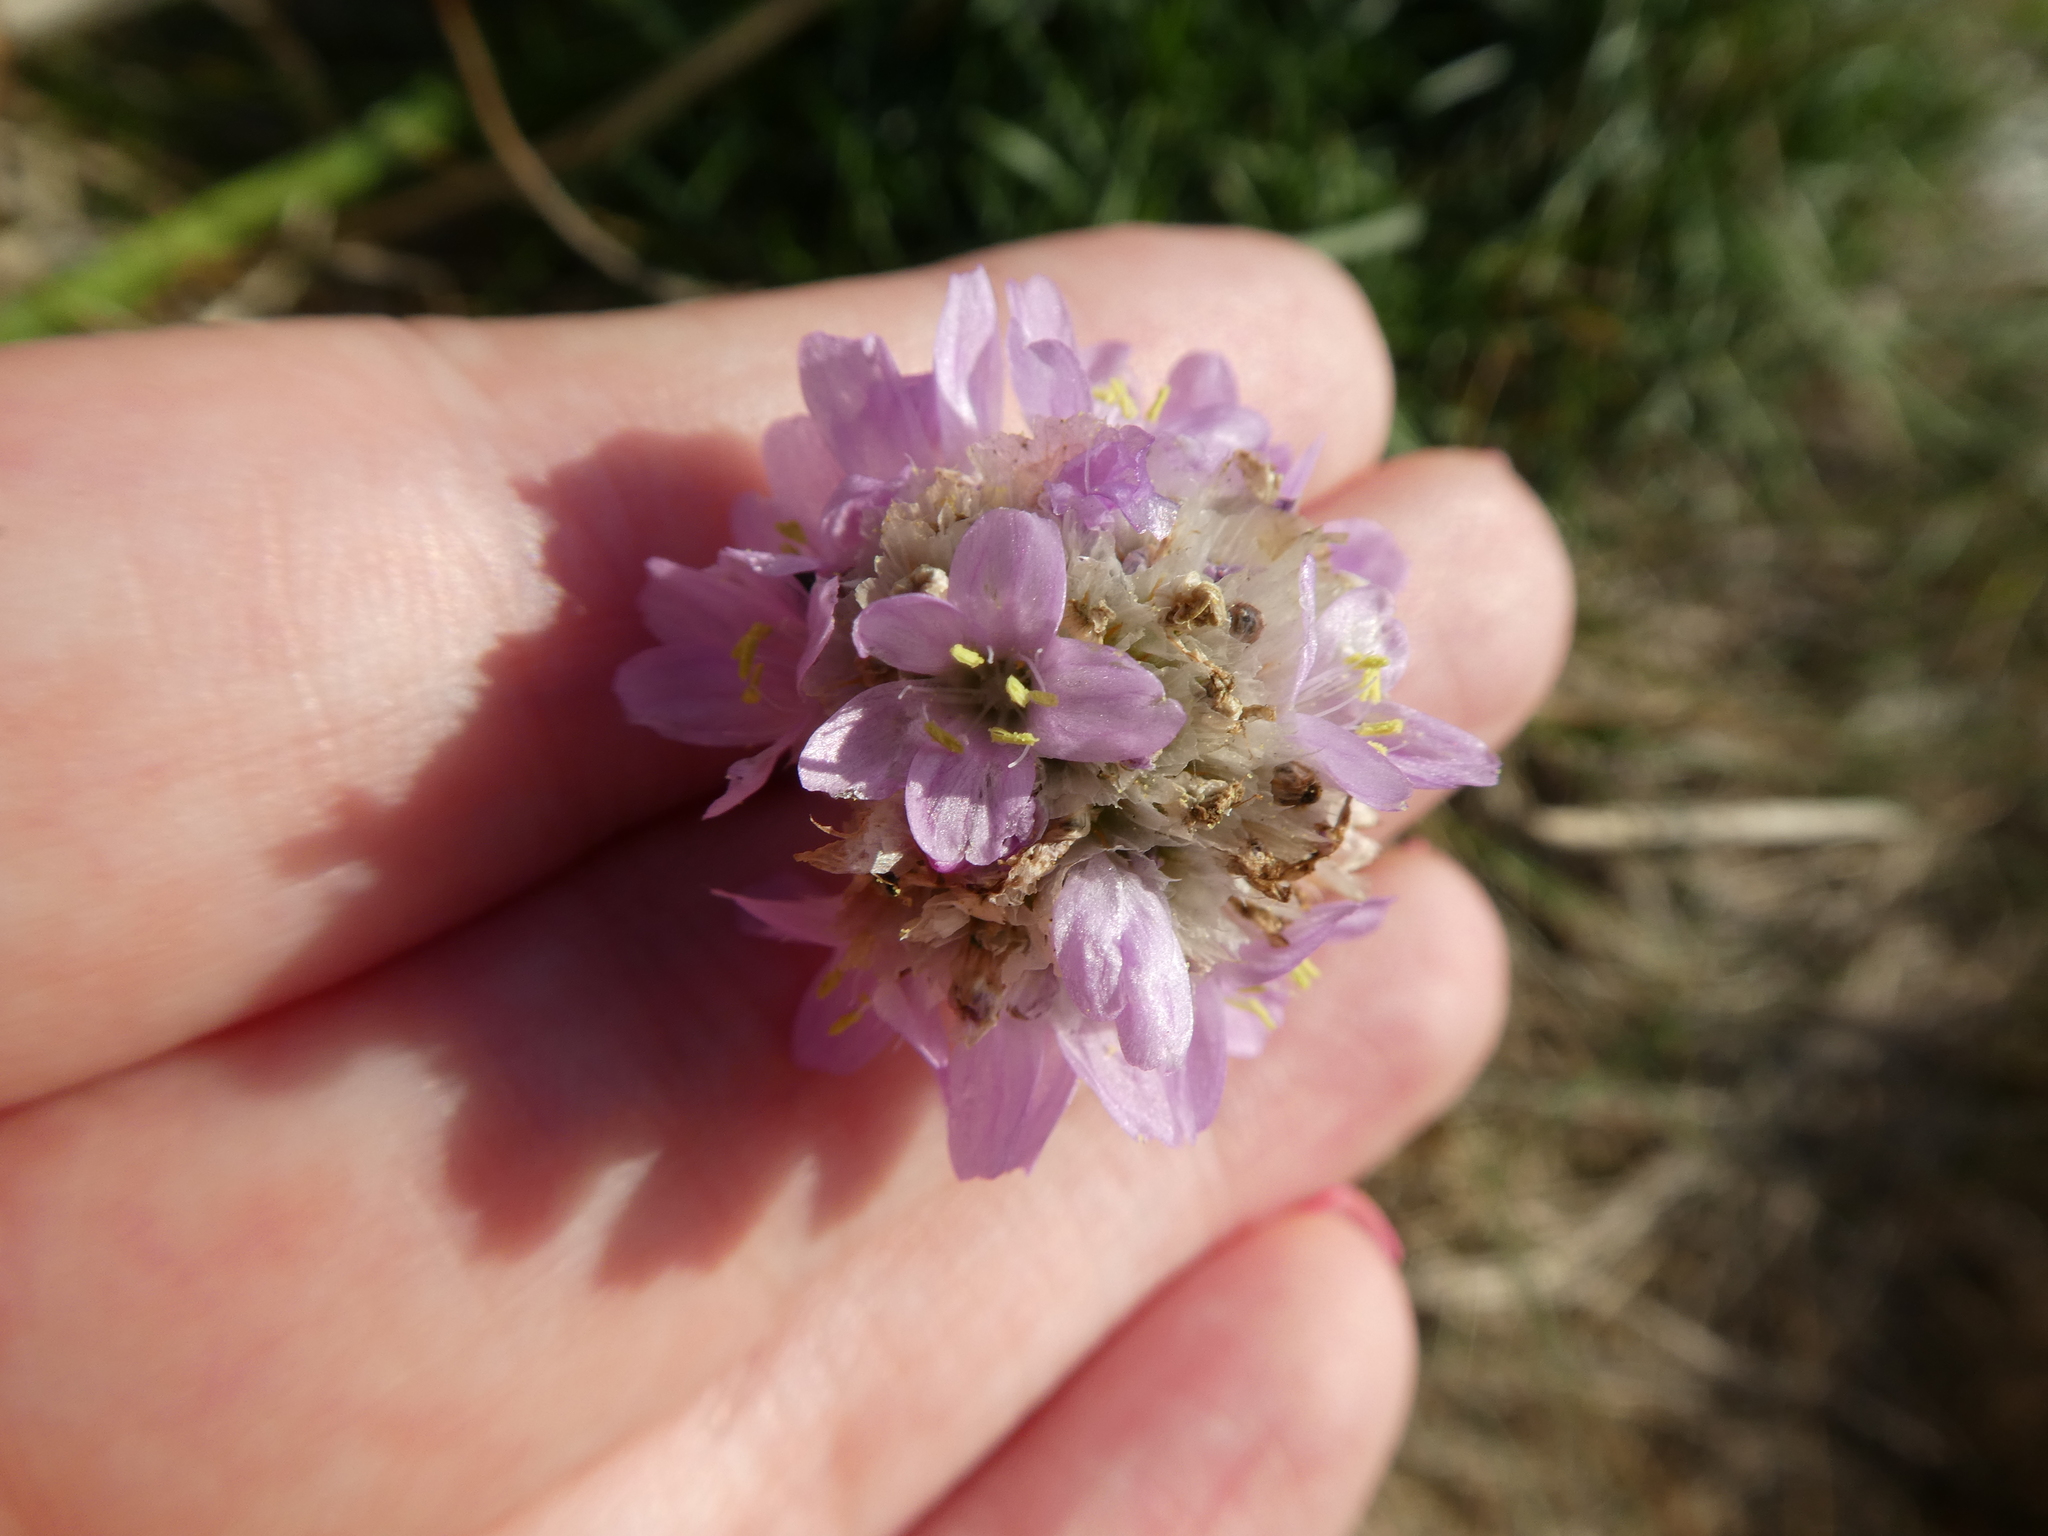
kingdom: Plantae
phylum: Tracheophyta
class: Magnoliopsida
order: Caryophyllales
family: Plumbaginaceae
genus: Armeria
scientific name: Armeria maritima
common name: Thrift
